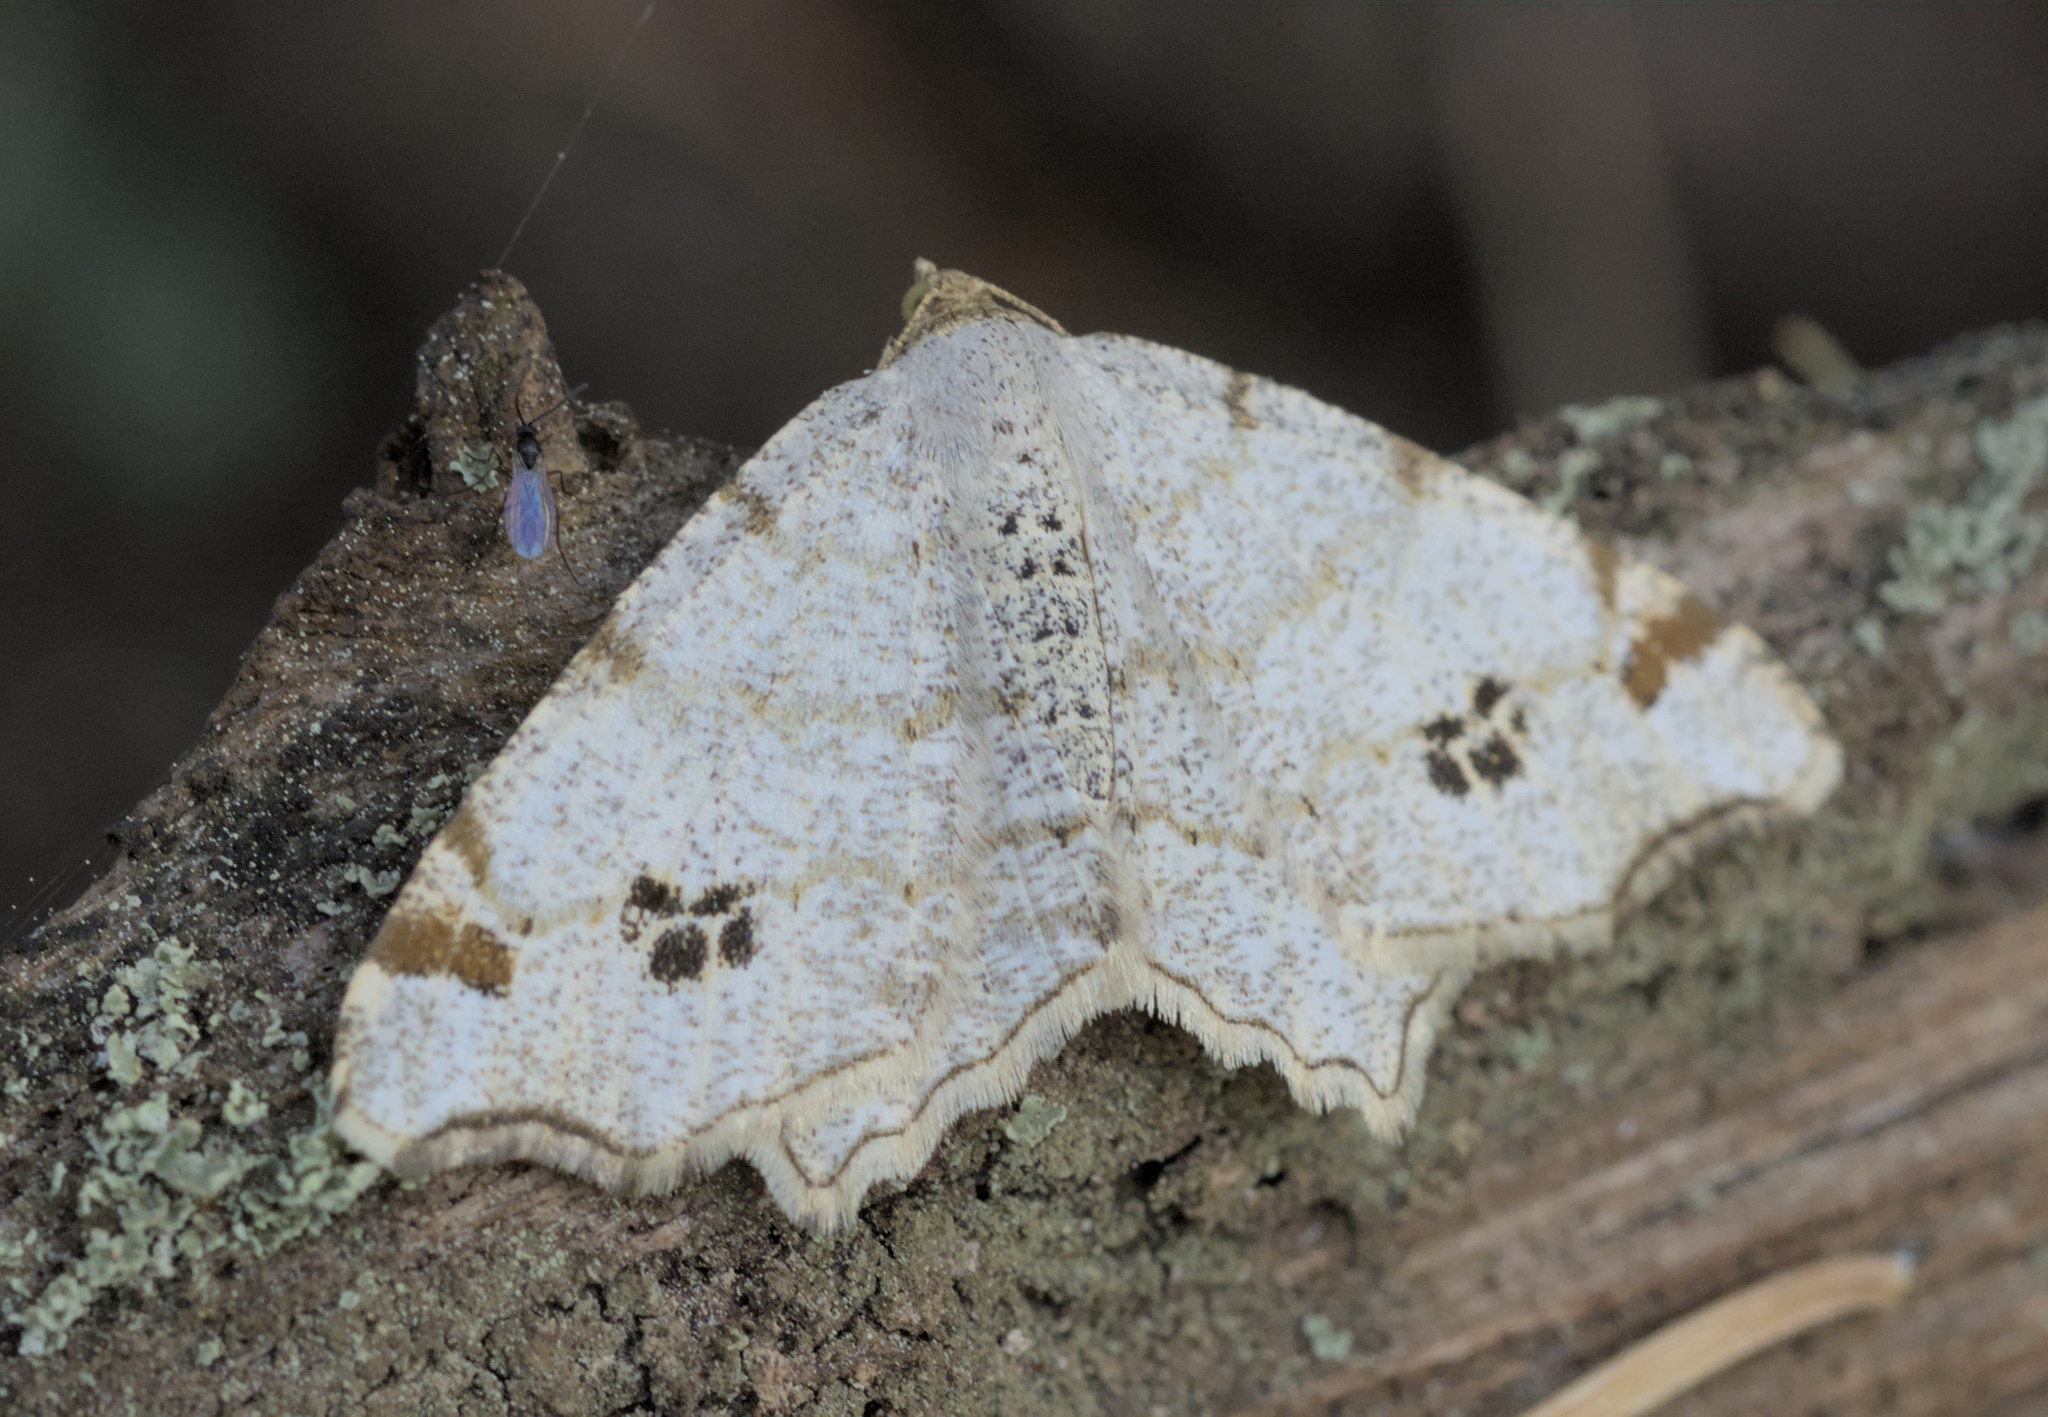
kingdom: Animalia
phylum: Arthropoda
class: Insecta
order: Lepidoptera
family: Geometridae
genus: Macaria
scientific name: Macaria notata
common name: Peacock moth
